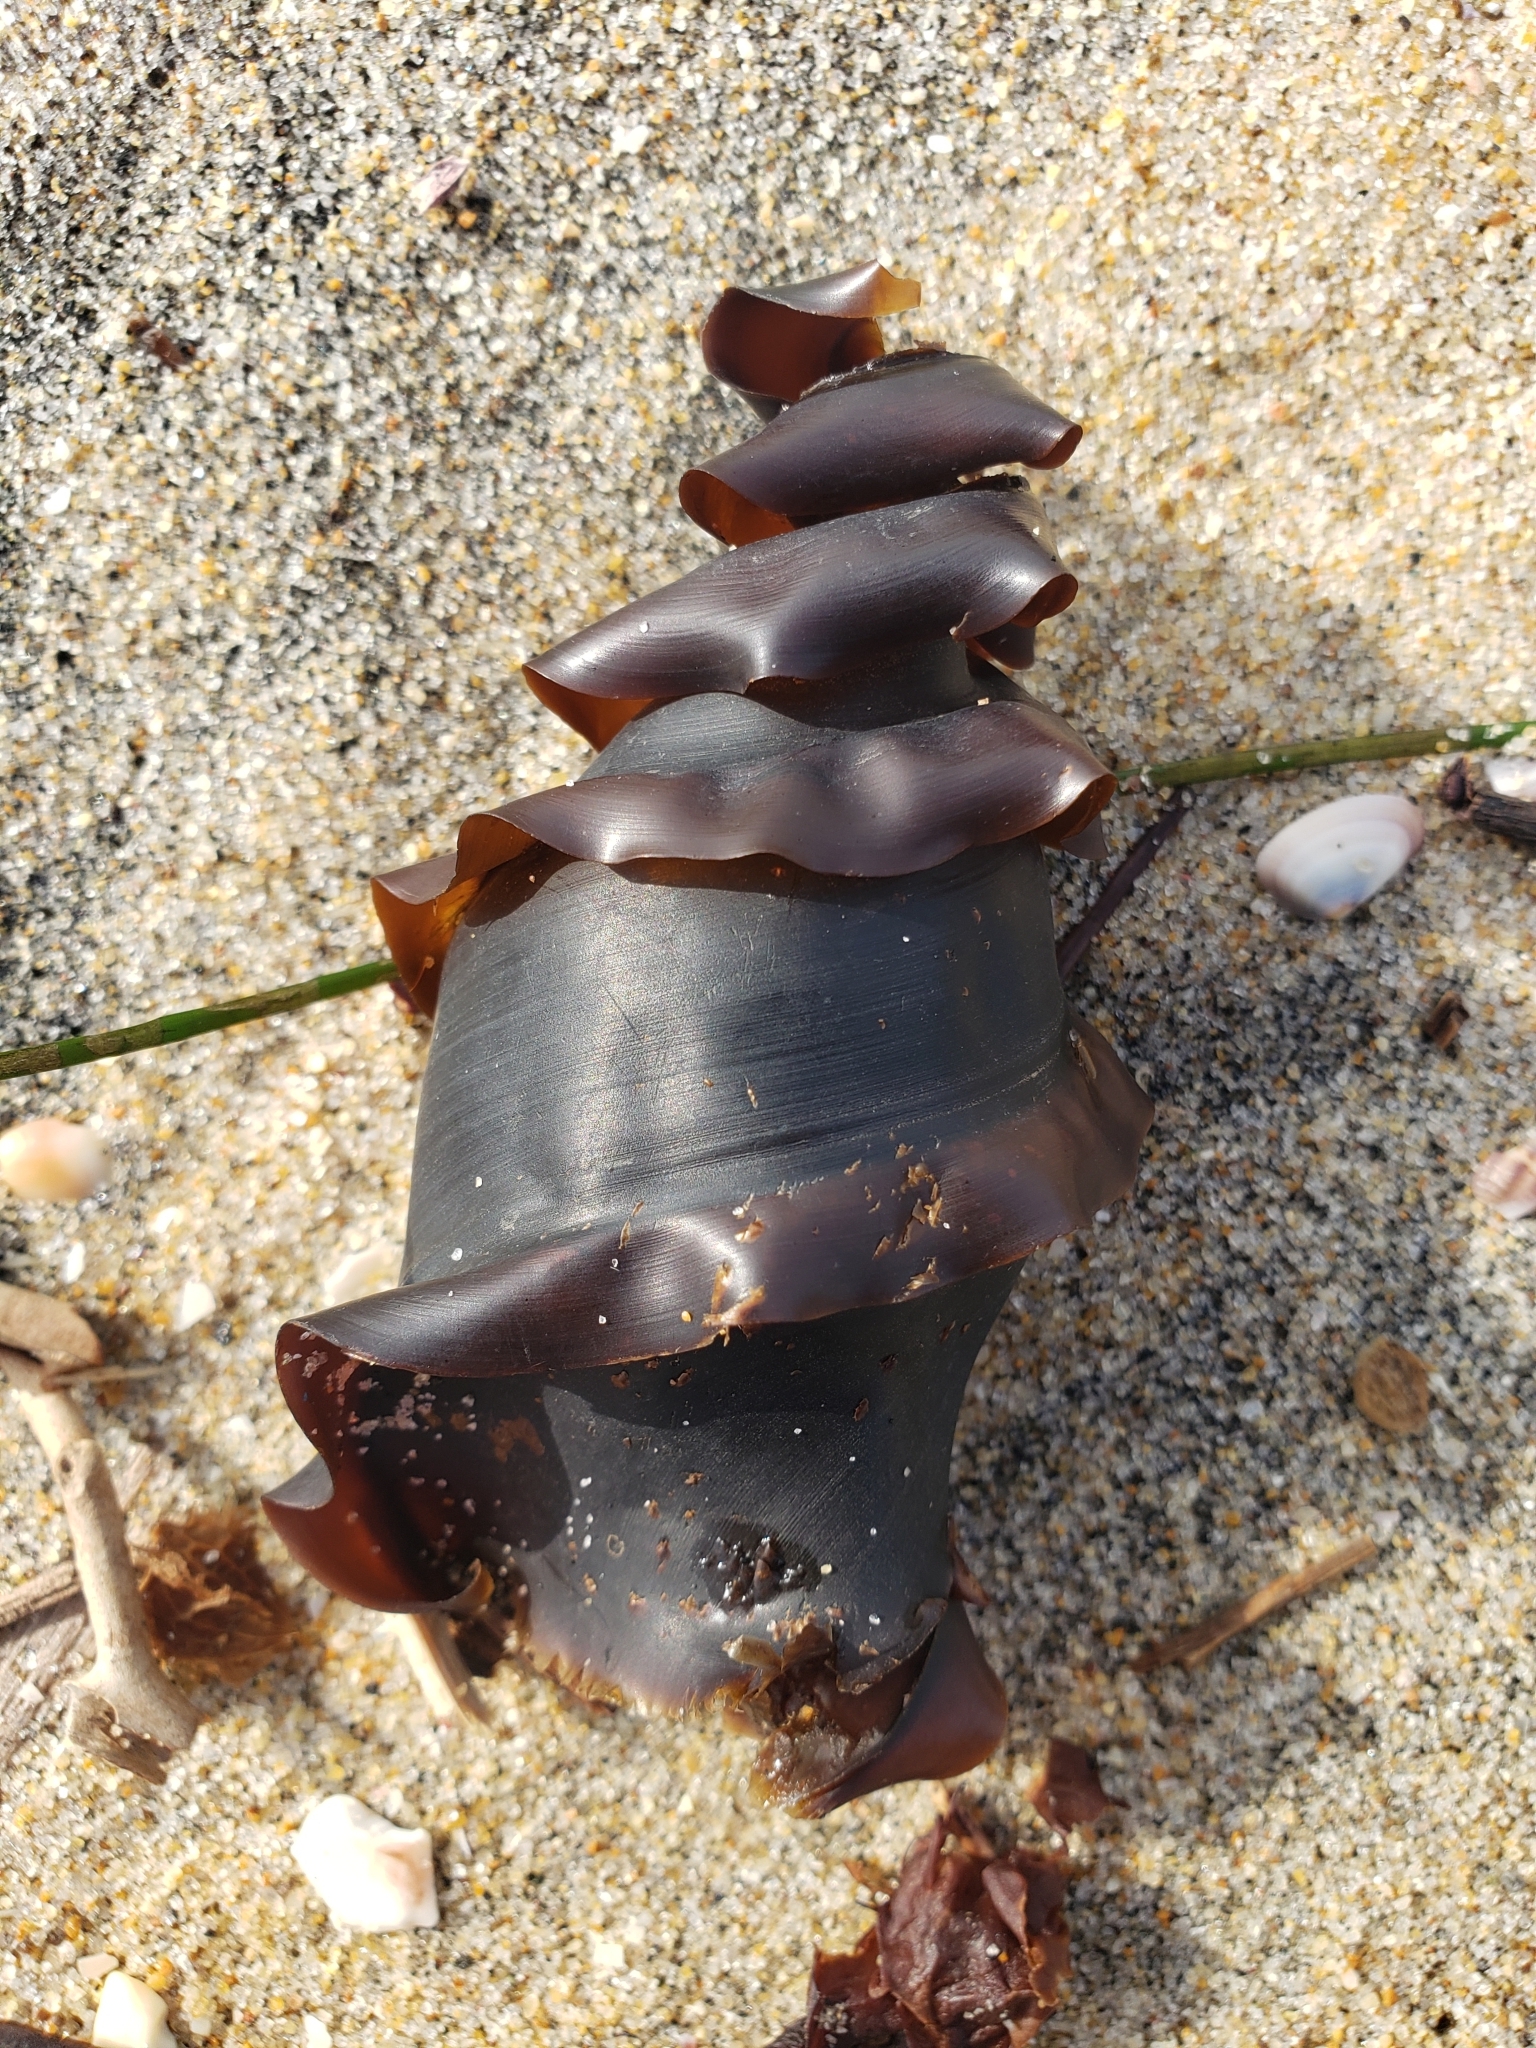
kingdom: Animalia
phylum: Chordata
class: Elasmobranchii
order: Heterodontiformes
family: Heterodontidae
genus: Heterodontus
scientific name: Heterodontus francisci
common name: Horn shark
